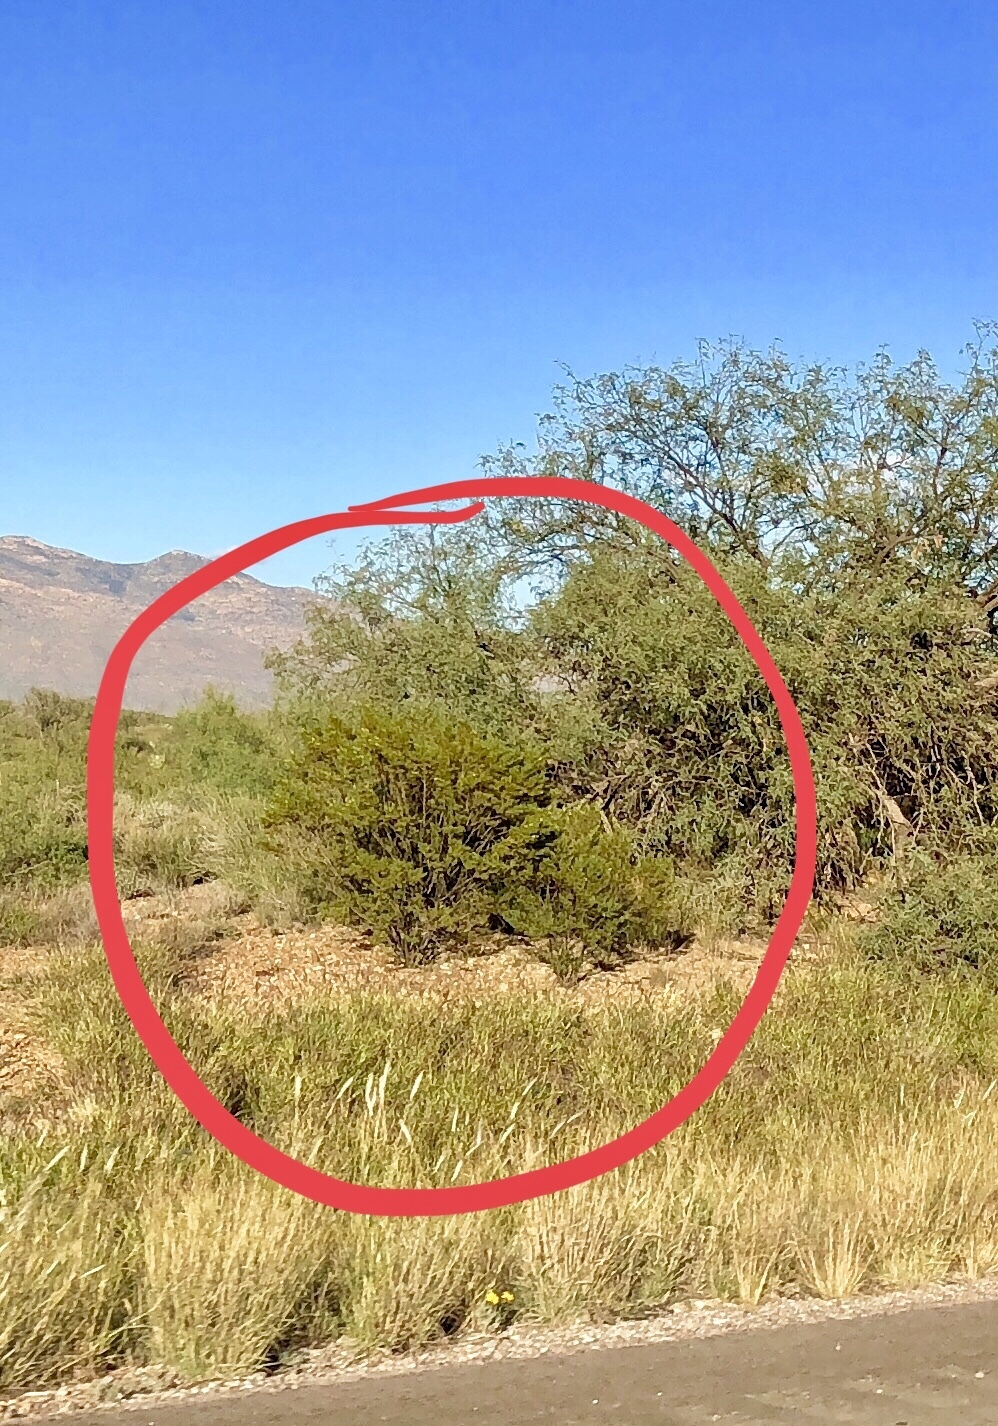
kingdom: Plantae
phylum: Tracheophyta
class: Magnoliopsida
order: Zygophyllales
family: Zygophyllaceae
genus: Larrea
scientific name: Larrea tridentata
